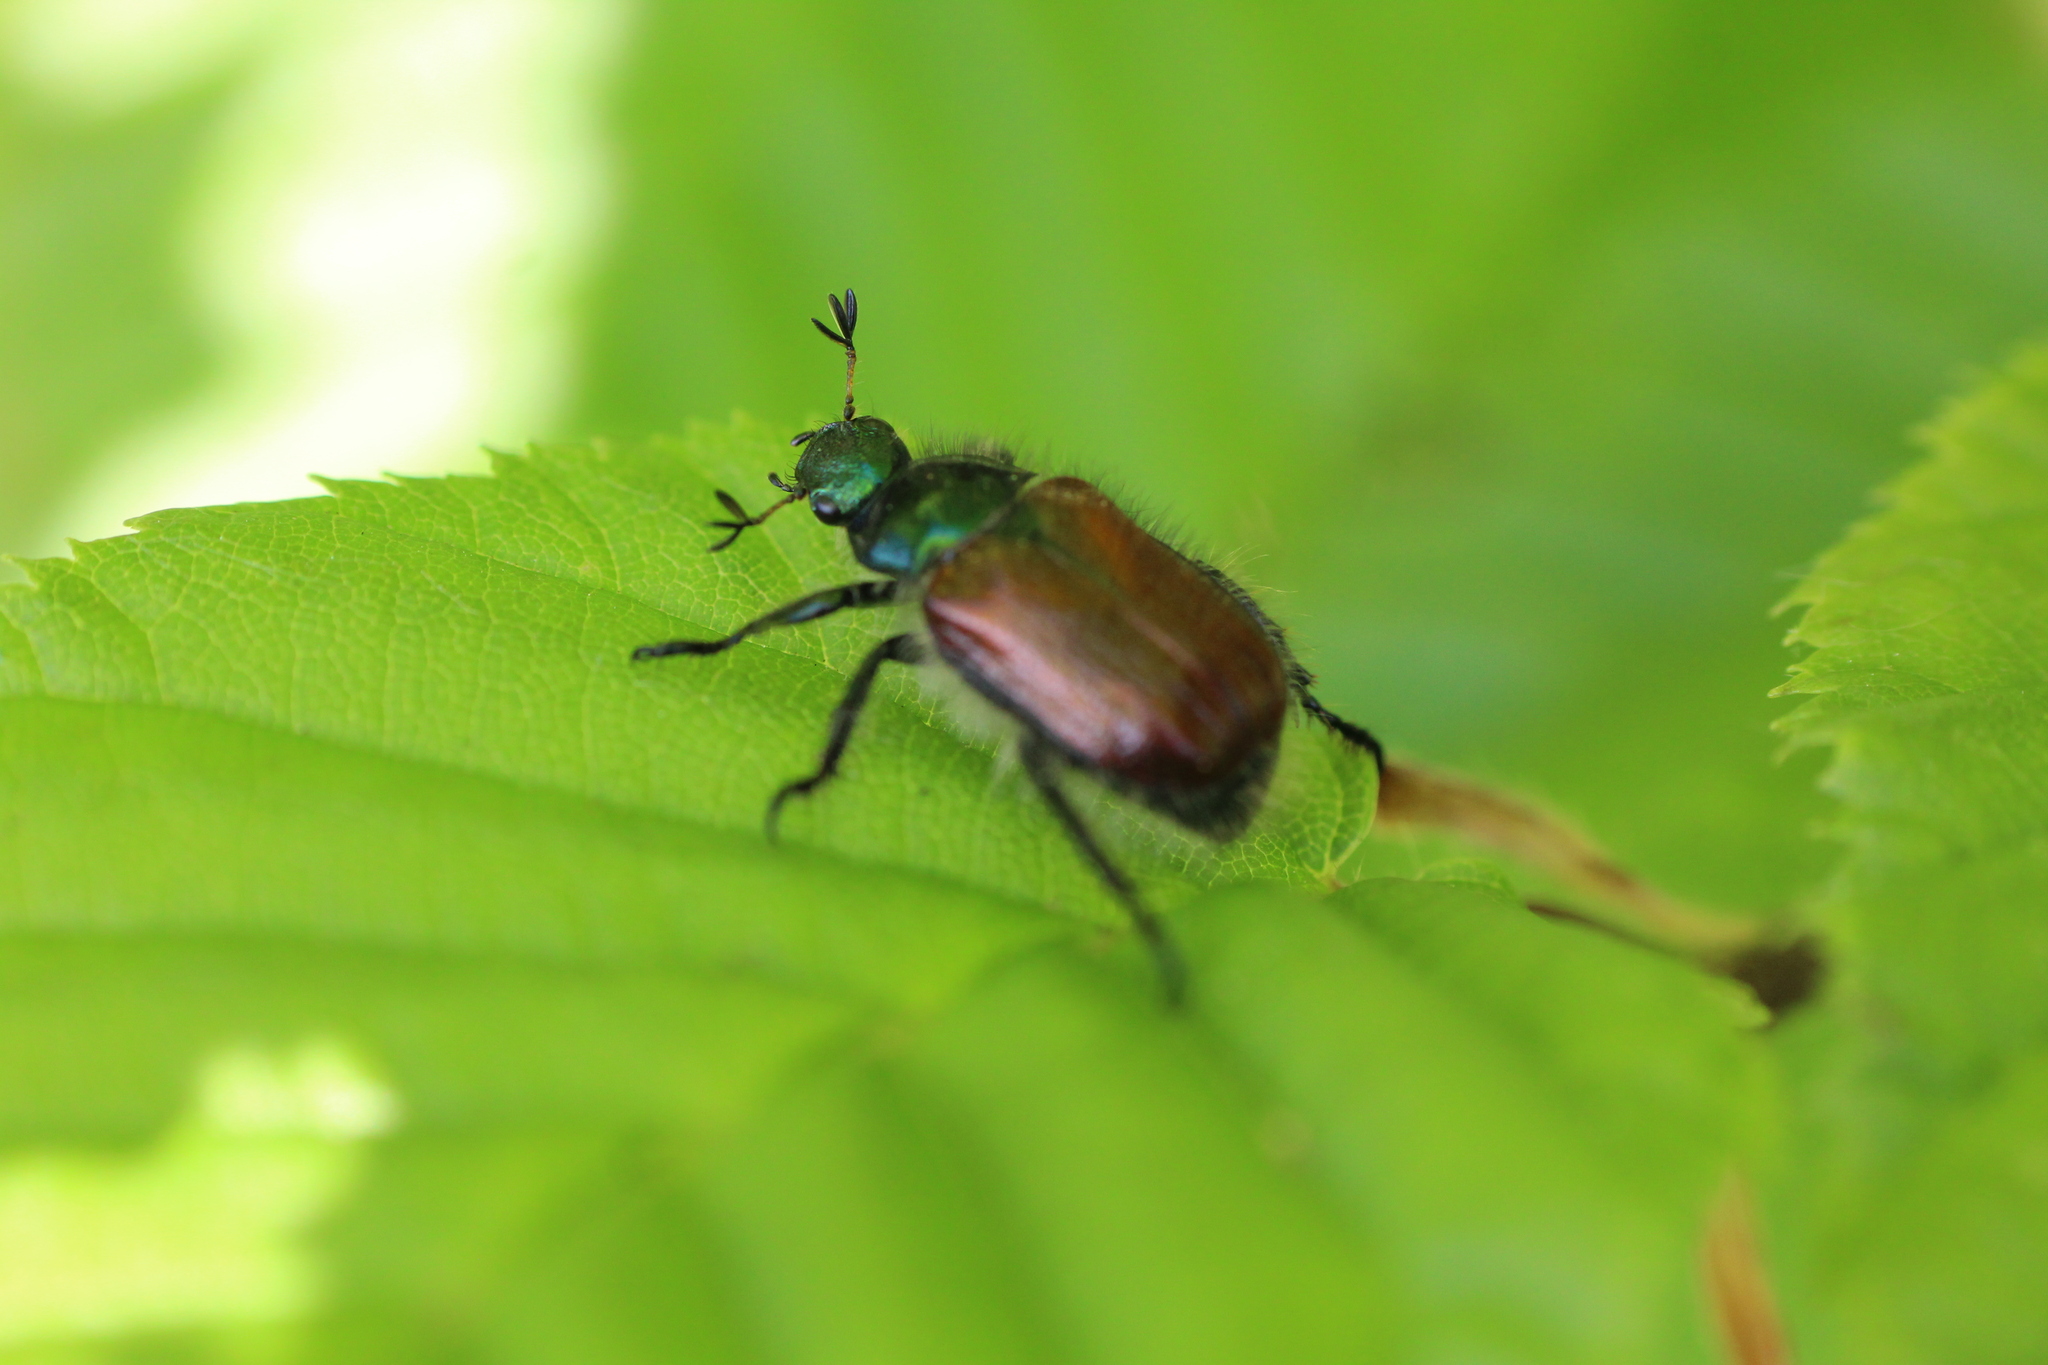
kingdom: Animalia
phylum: Arthropoda
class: Insecta
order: Coleoptera
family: Scarabaeidae
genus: Phyllopertha
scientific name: Phyllopertha horticola
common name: Garden chafer
